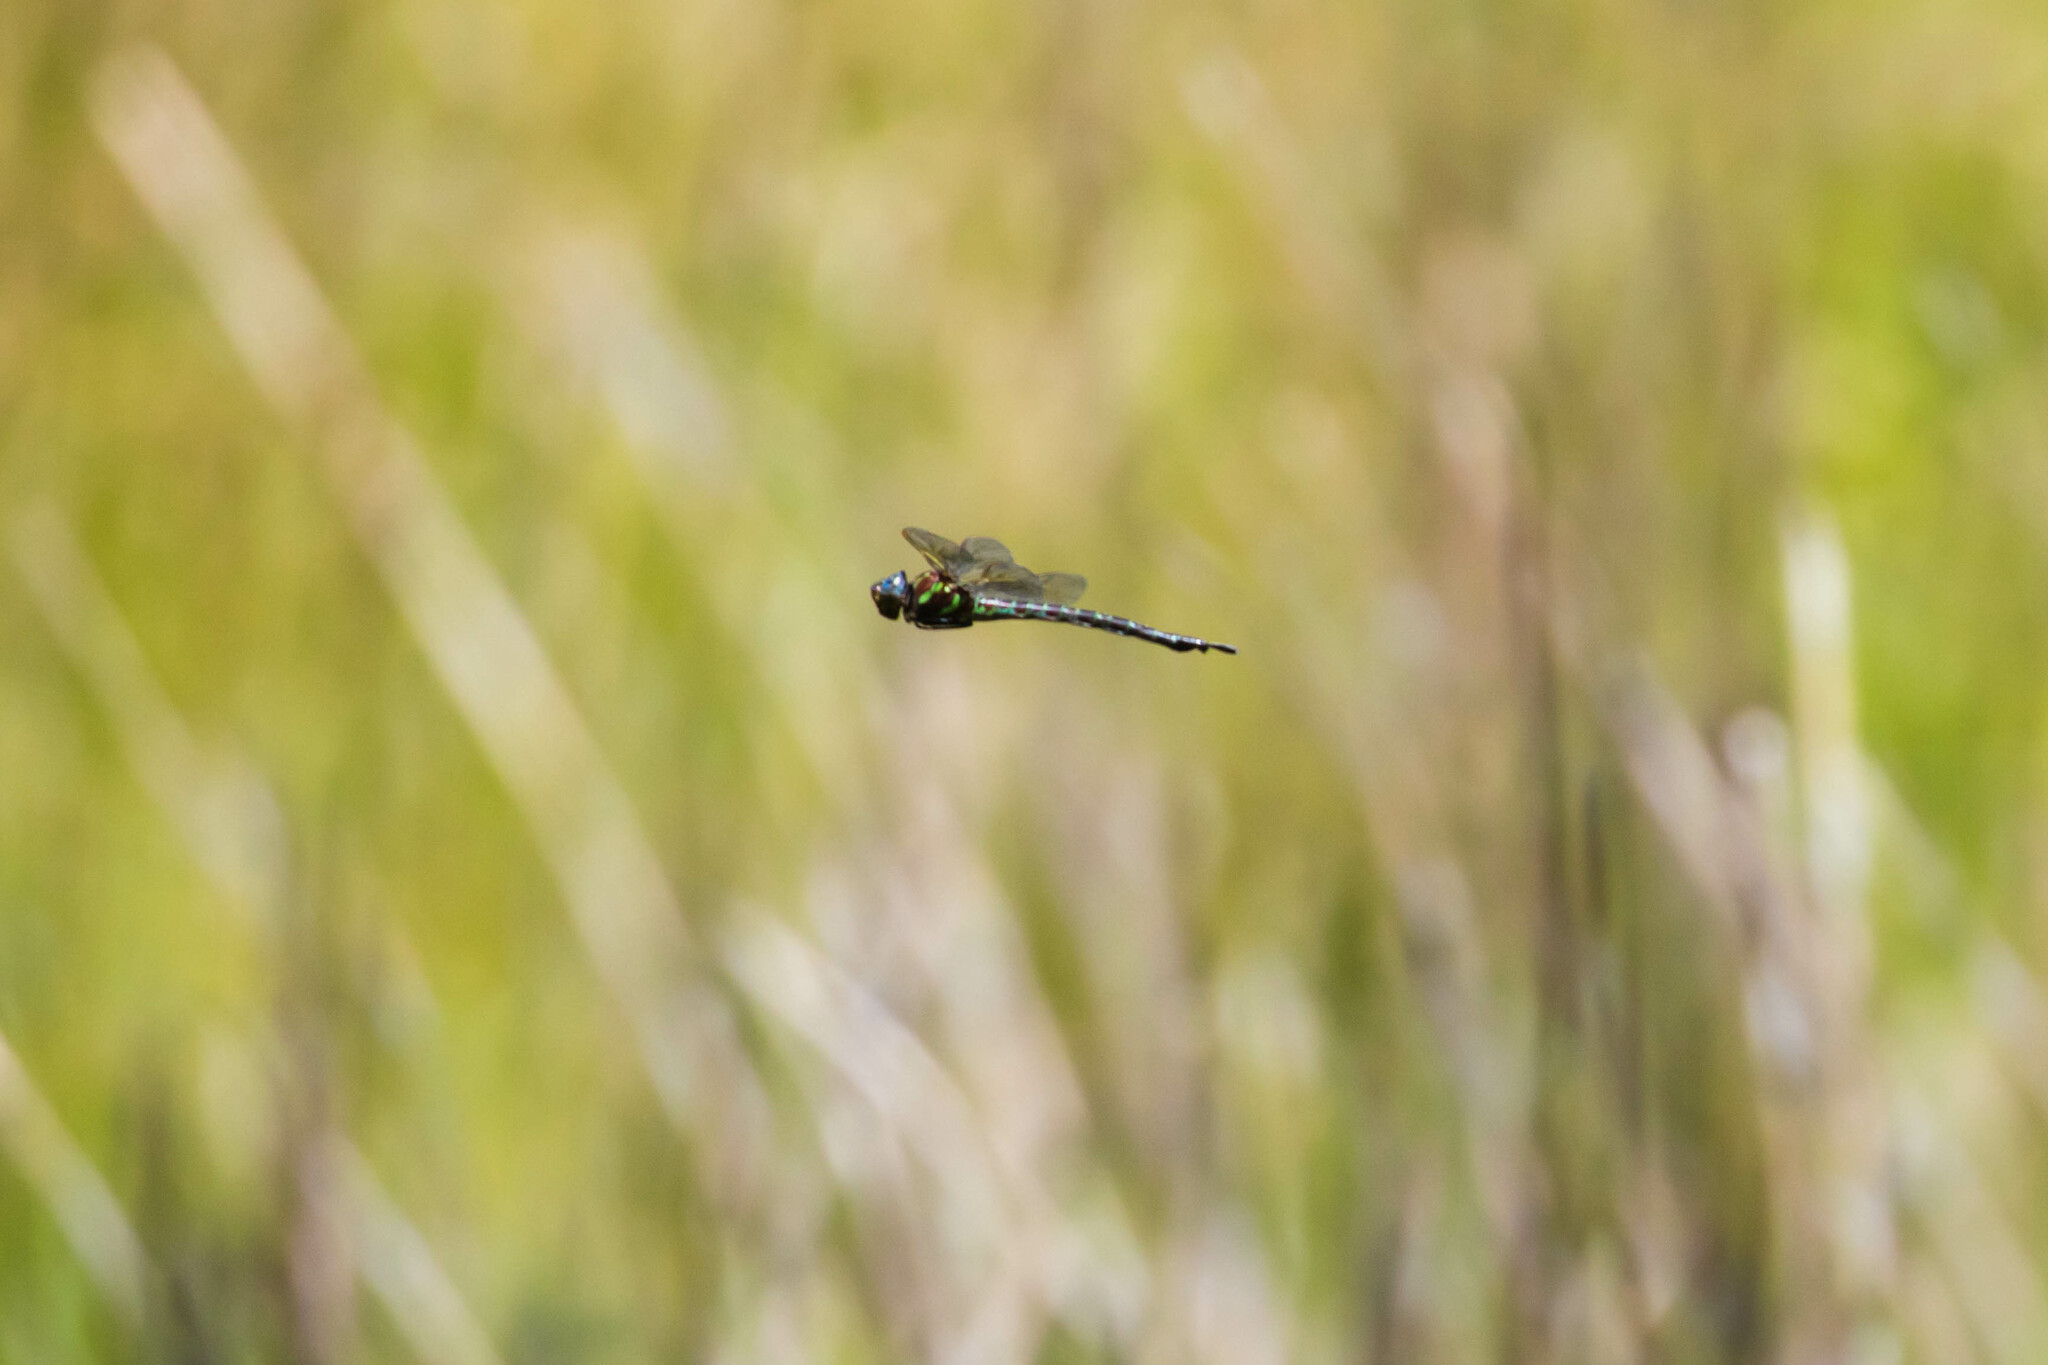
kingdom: Animalia
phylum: Arthropoda
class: Insecta
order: Odonata
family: Aeshnidae
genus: Epiaeschna
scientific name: Epiaeschna heros
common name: Swamp darner
